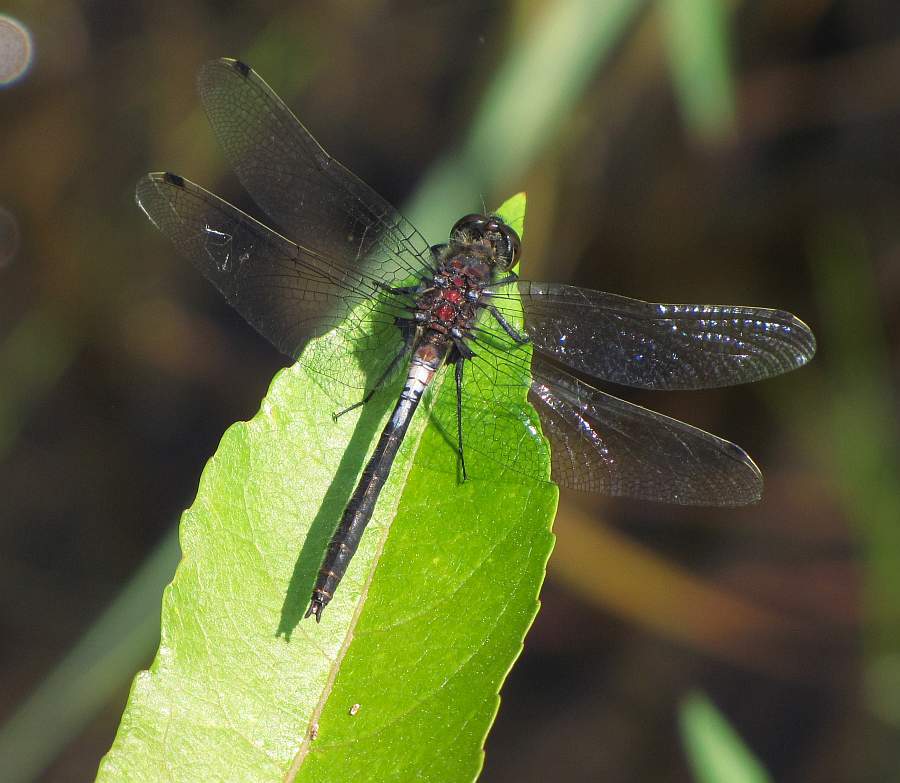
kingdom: Animalia
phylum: Arthropoda
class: Insecta
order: Odonata
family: Libellulidae
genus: Leucorrhinia
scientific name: Leucorrhinia proxima
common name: Belted whiteface
